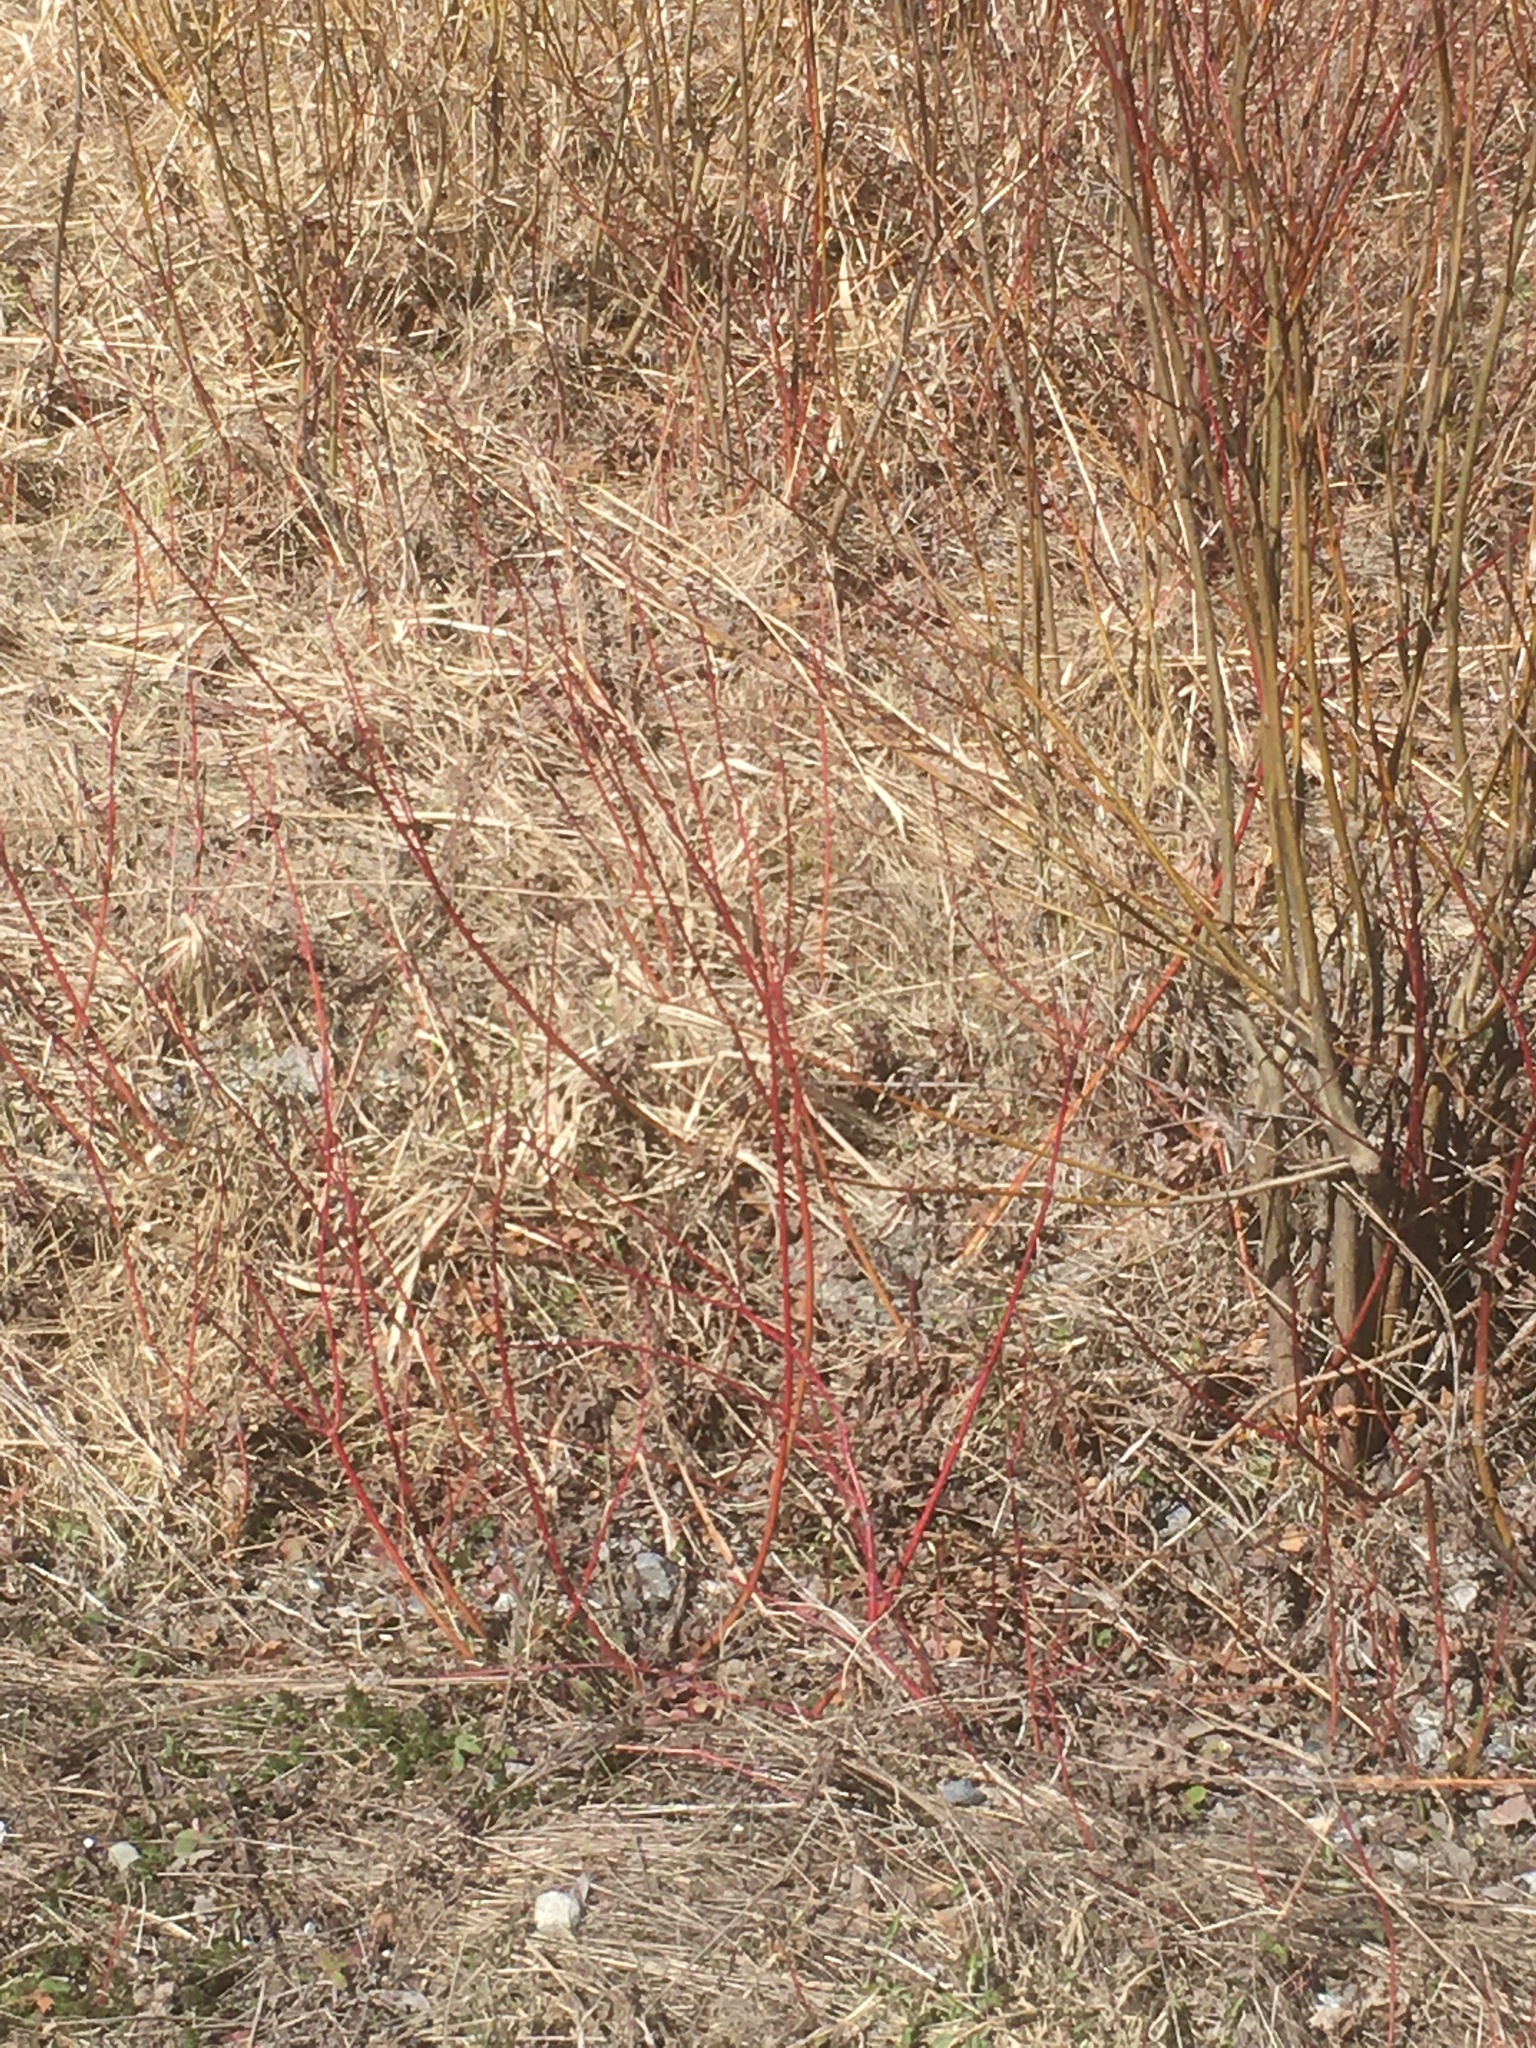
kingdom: Plantae
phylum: Tracheophyta
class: Magnoliopsida
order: Cornales
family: Cornaceae
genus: Cornus
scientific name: Cornus sericea
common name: Red-osier dogwood
